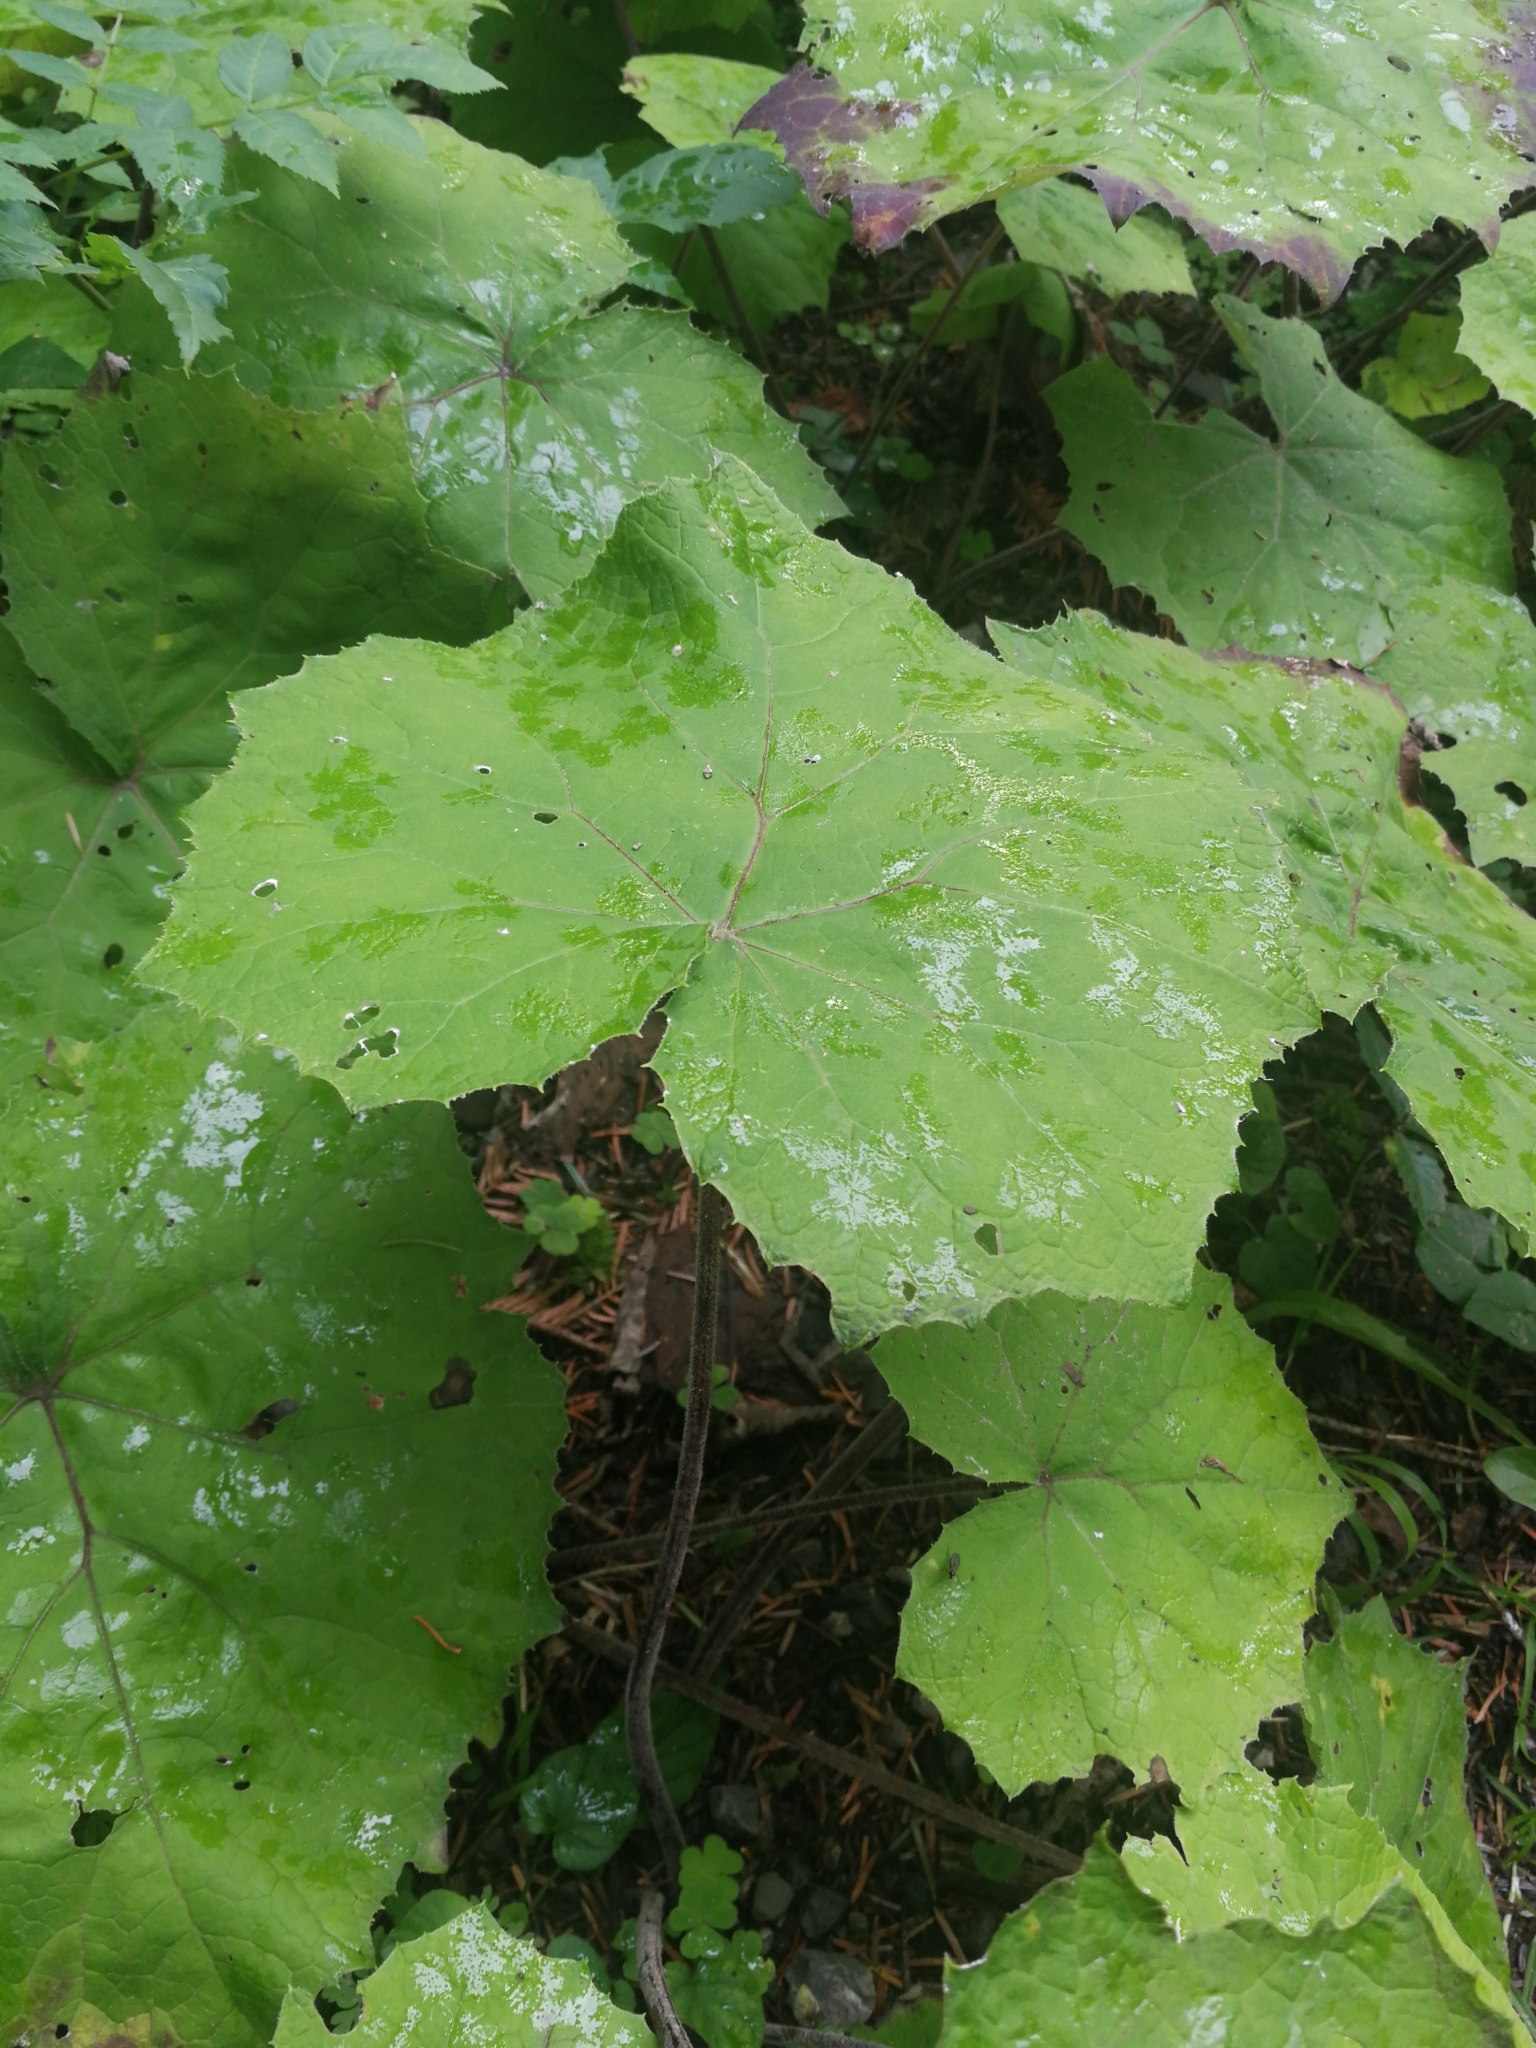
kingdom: Plantae
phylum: Tracheophyta
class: Magnoliopsida
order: Asterales
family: Asteraceae
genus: Tussilago
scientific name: Tussilago farfara
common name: Coltsfoot
